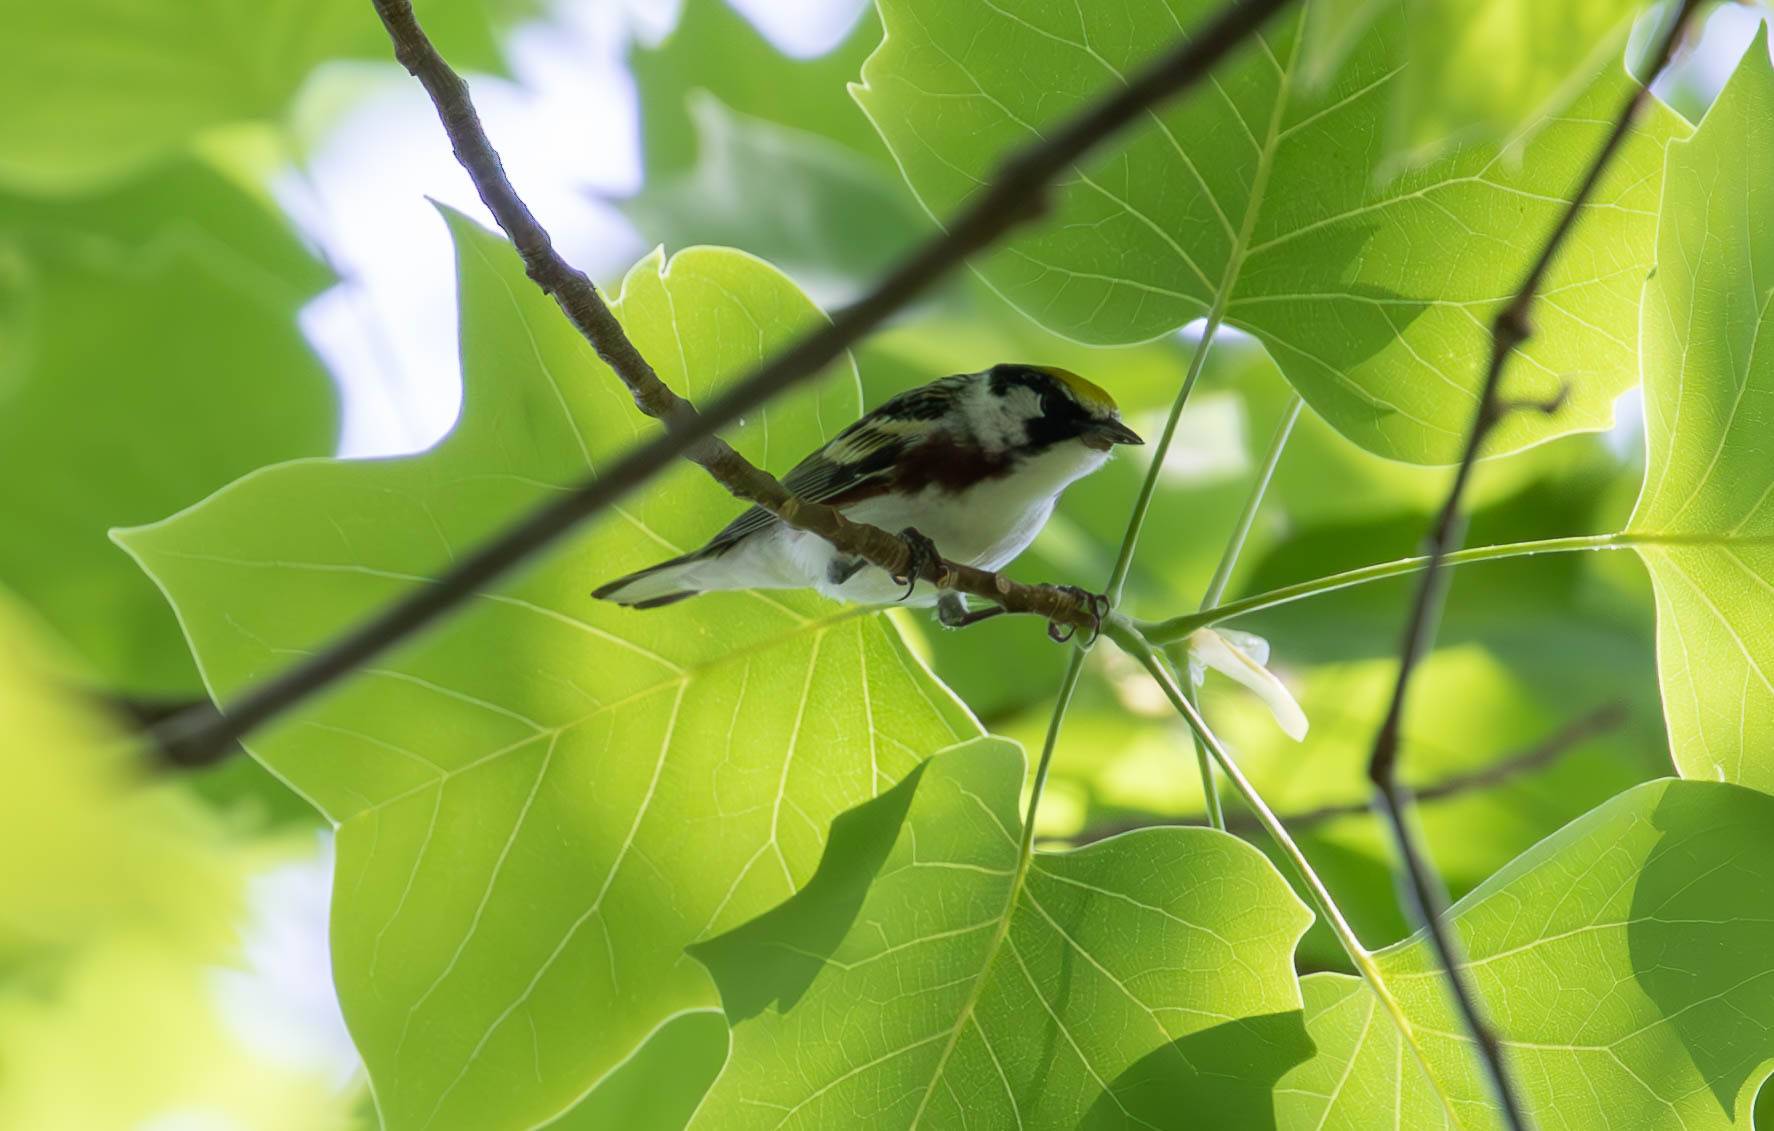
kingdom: Animalia
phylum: Chordata
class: Aves
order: Passeriformes
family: Parulidae
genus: Setophaga
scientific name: Setophaga pensylvanica
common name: Chestnut-sided warbler
